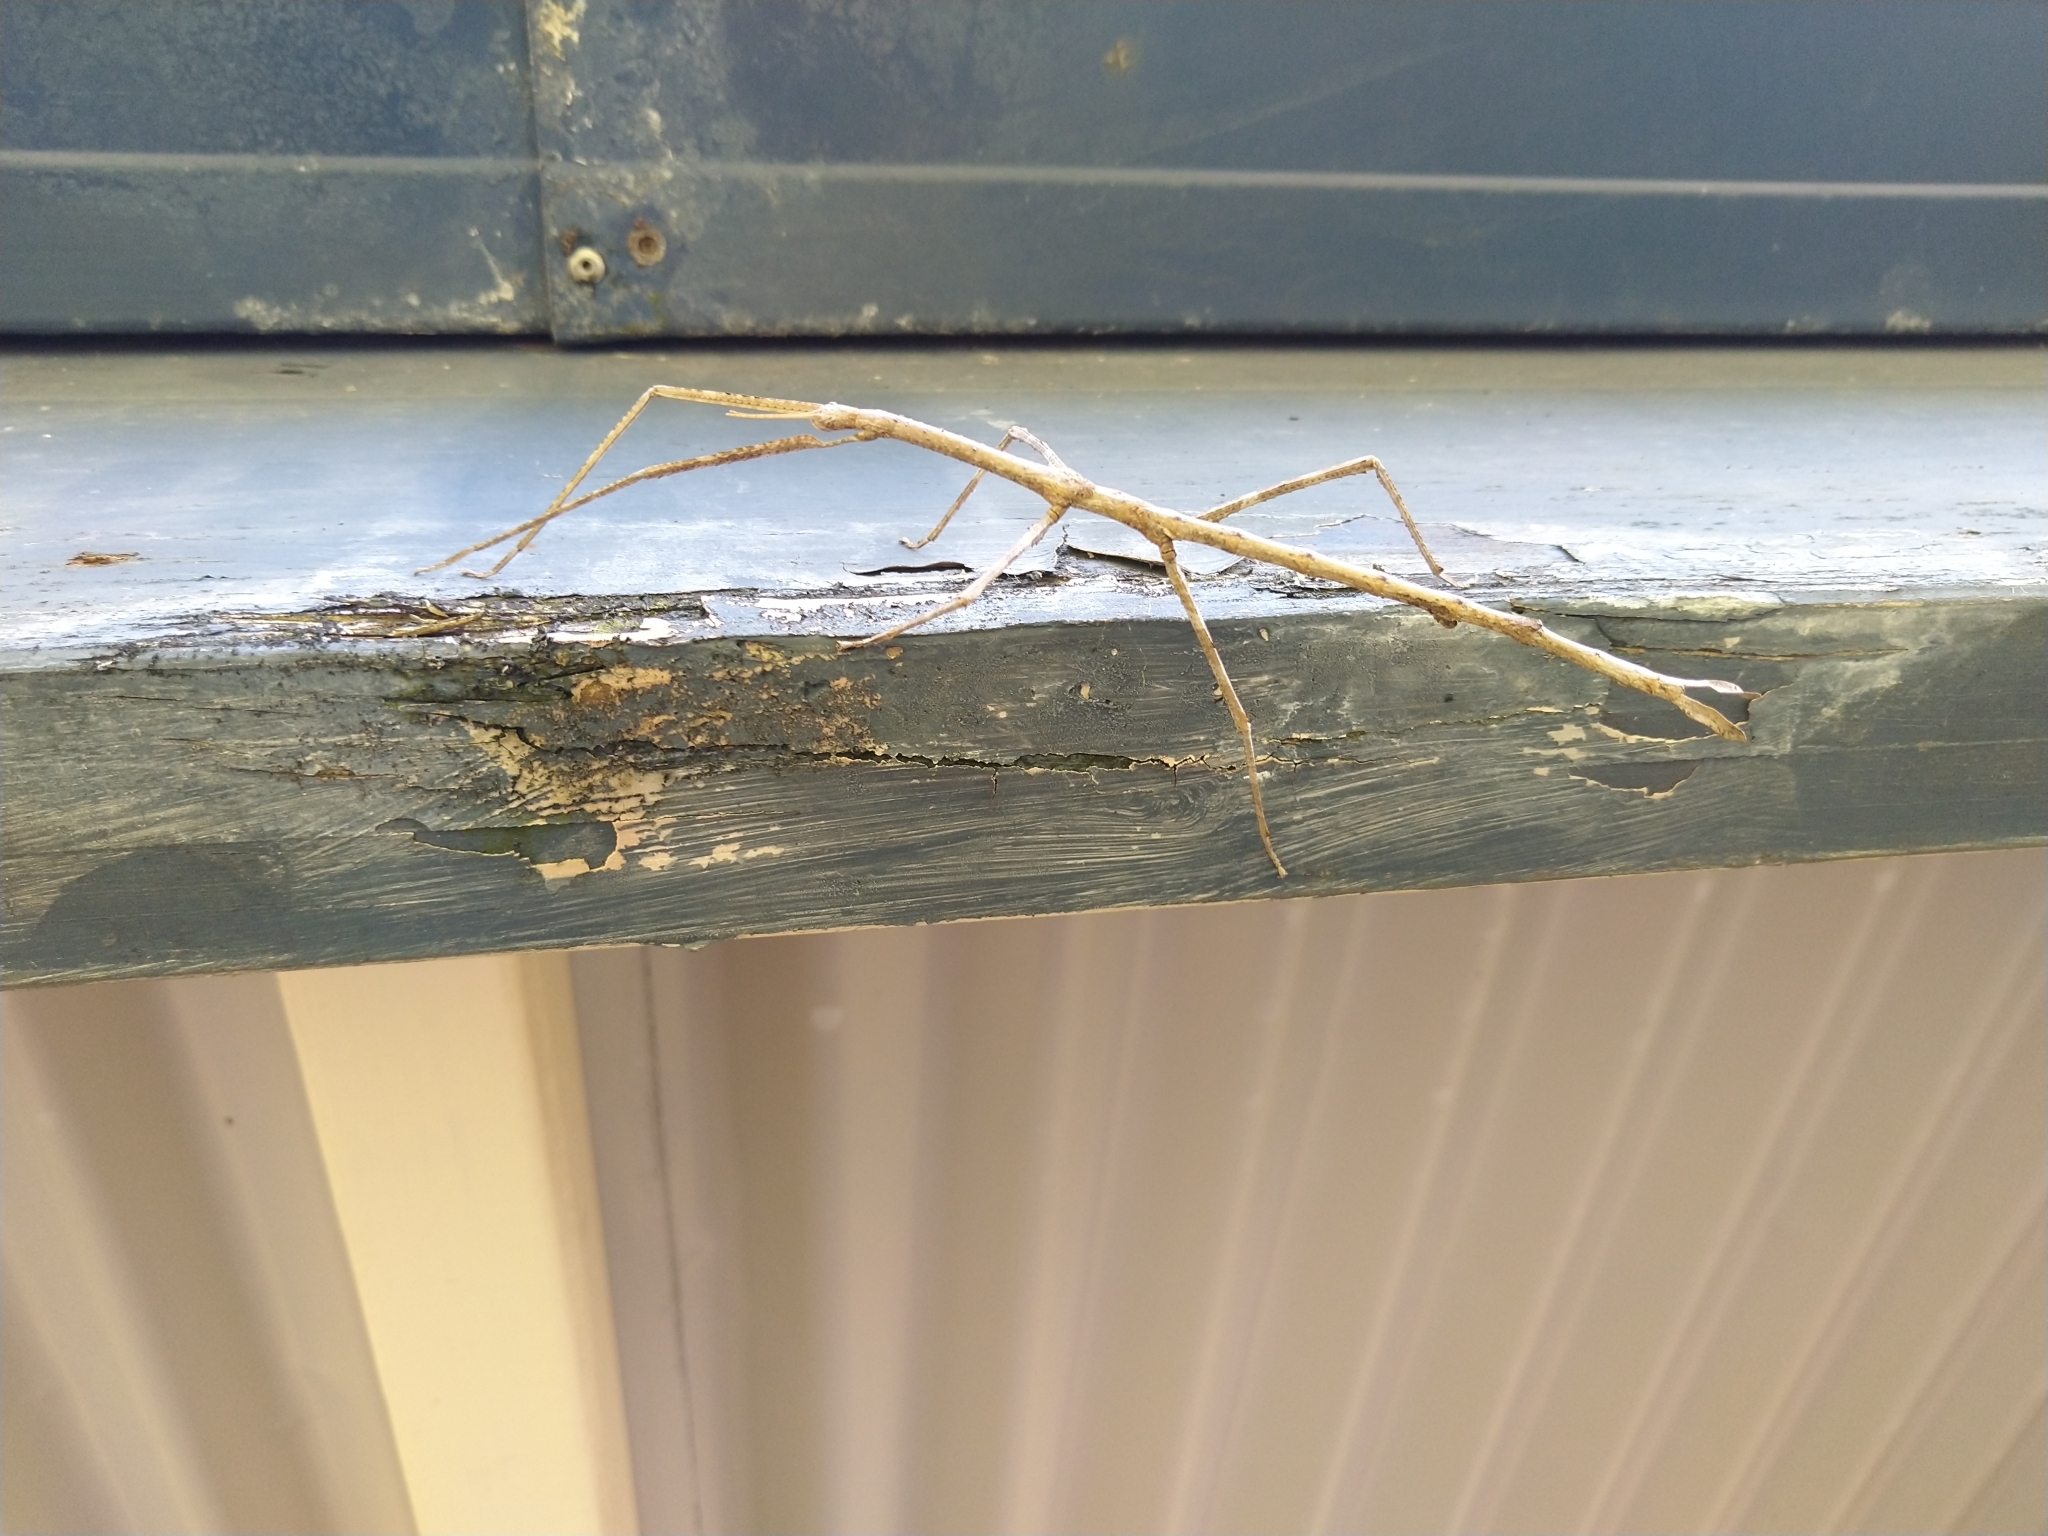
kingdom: Animalia
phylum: Arthropoda
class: Insecta
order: Phasmida
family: Phasmatidae
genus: Ctenomorpha
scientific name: Ctenomorpha marginipennis
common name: Margined-winged stick-insect
